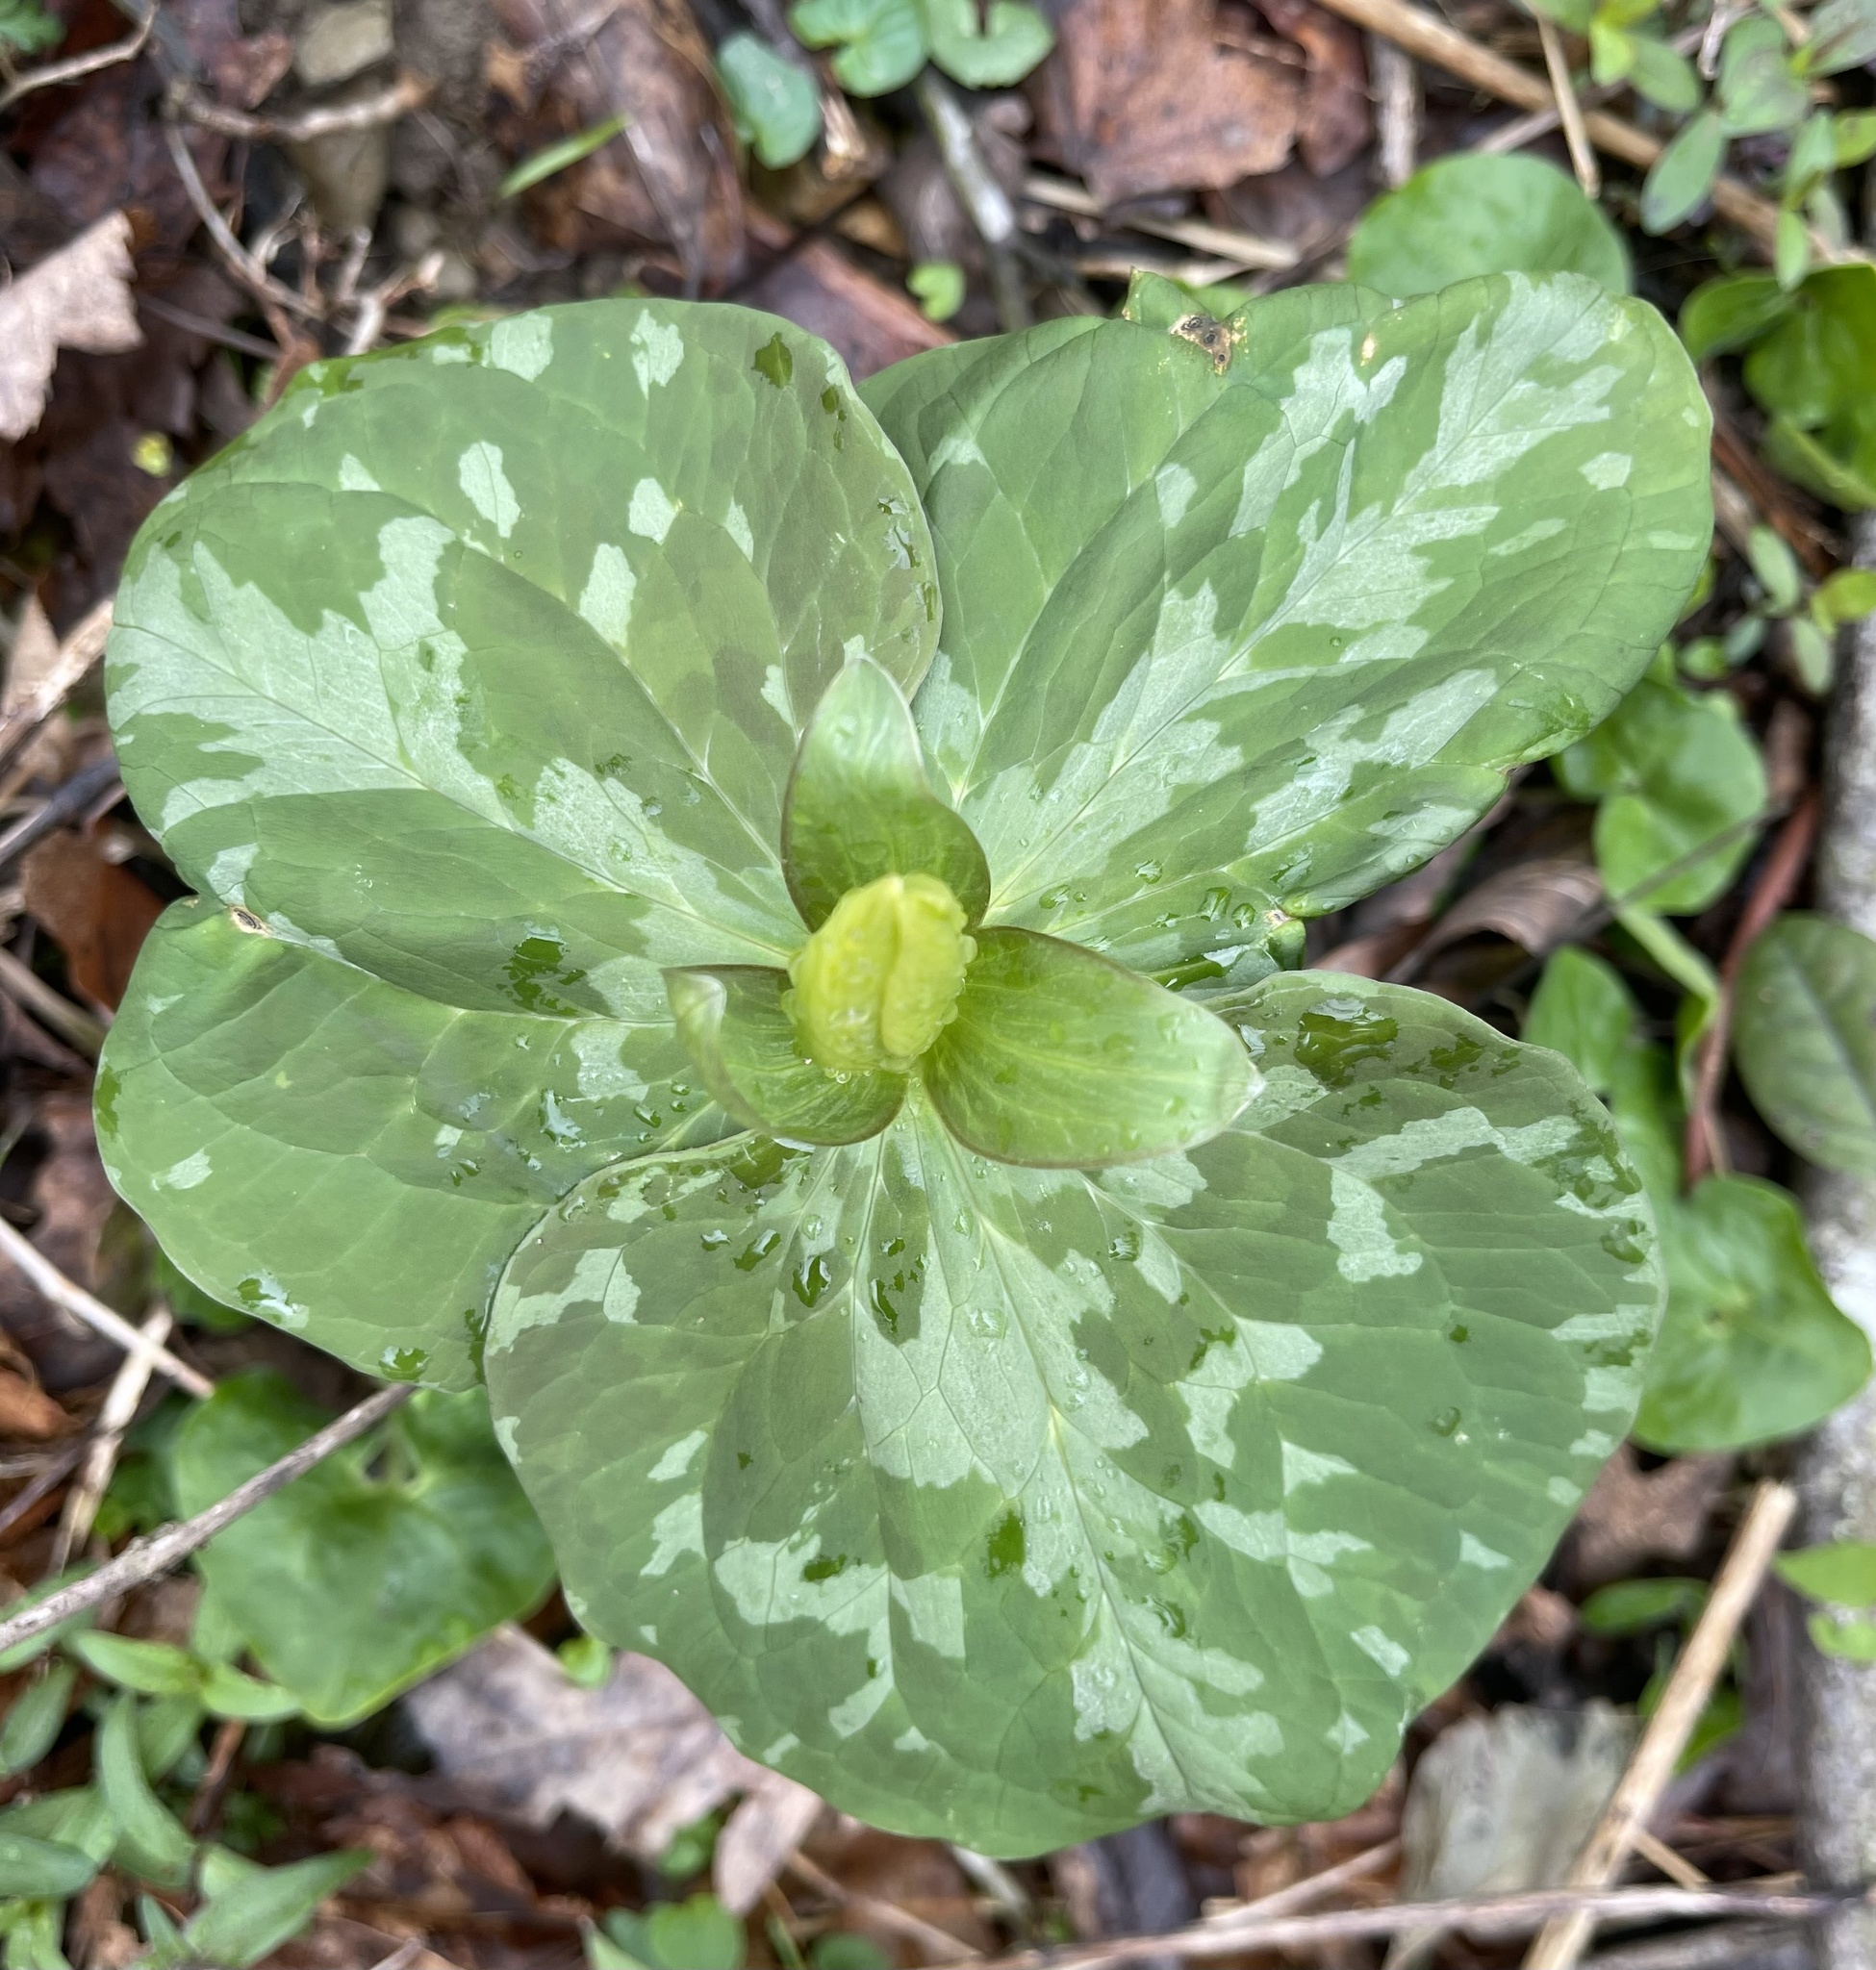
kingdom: Plantae
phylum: Tracheophyta
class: Liliopsida
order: Liliales
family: Melanthiaceae
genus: Trillium
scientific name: Trillium luteum
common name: Wax trillium
